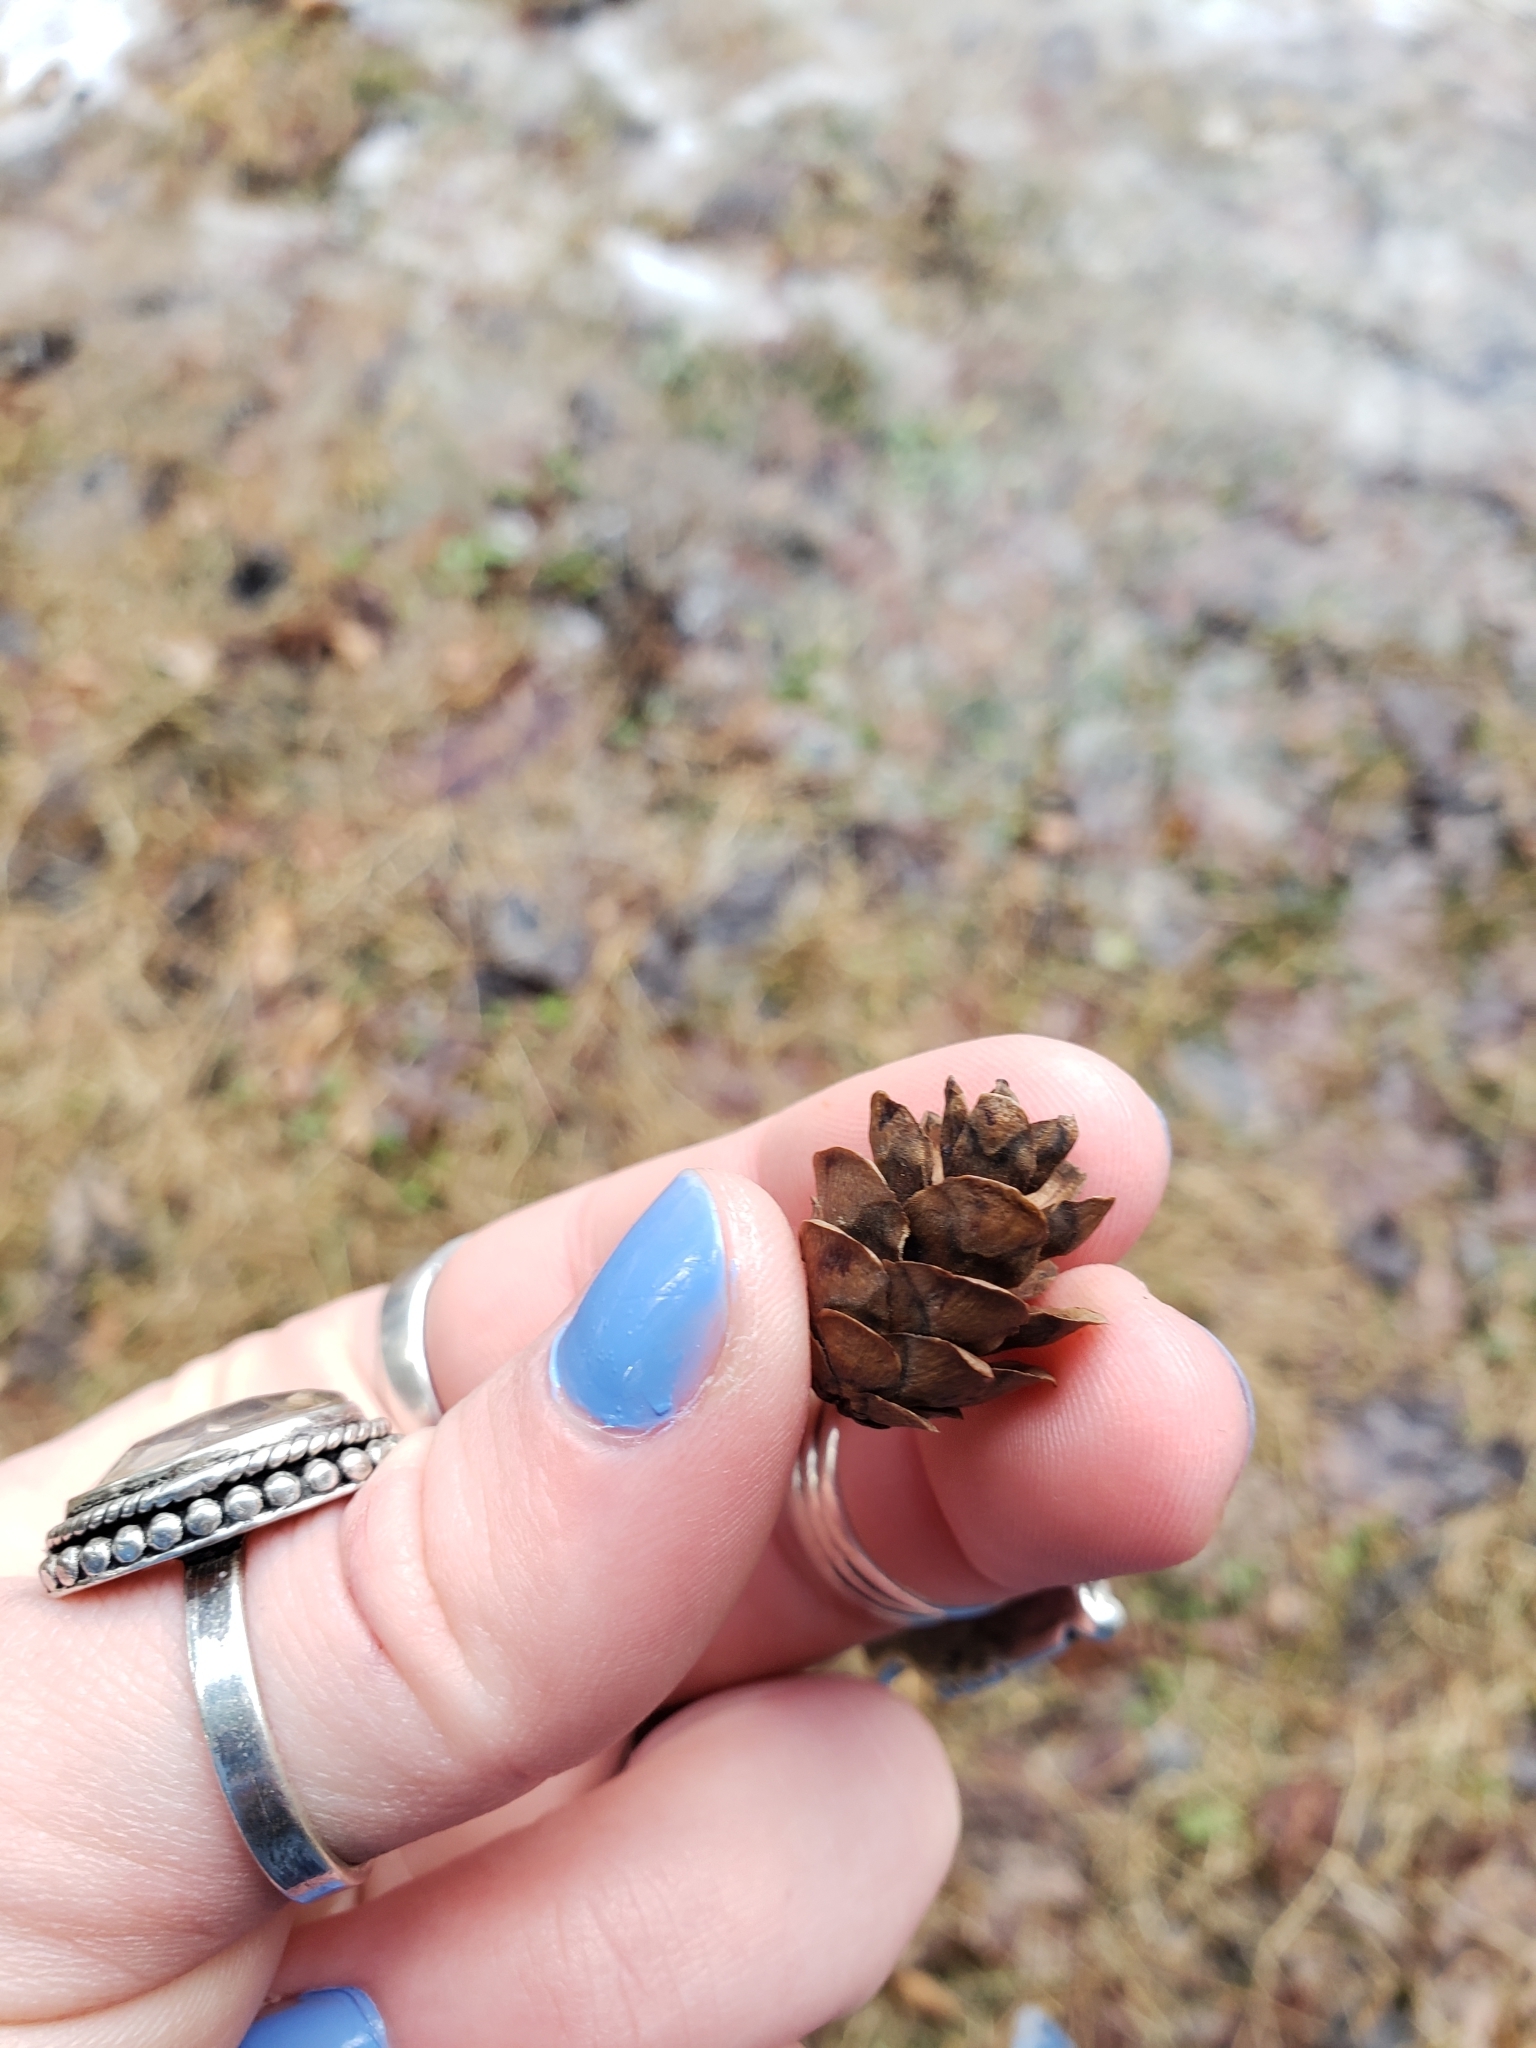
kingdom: Plantae
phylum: Tracheophyta
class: Pinopsida
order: Pinales
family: Pinaceae
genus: Tsuga
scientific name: Tsuga canadensis
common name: Eastern hemlock
